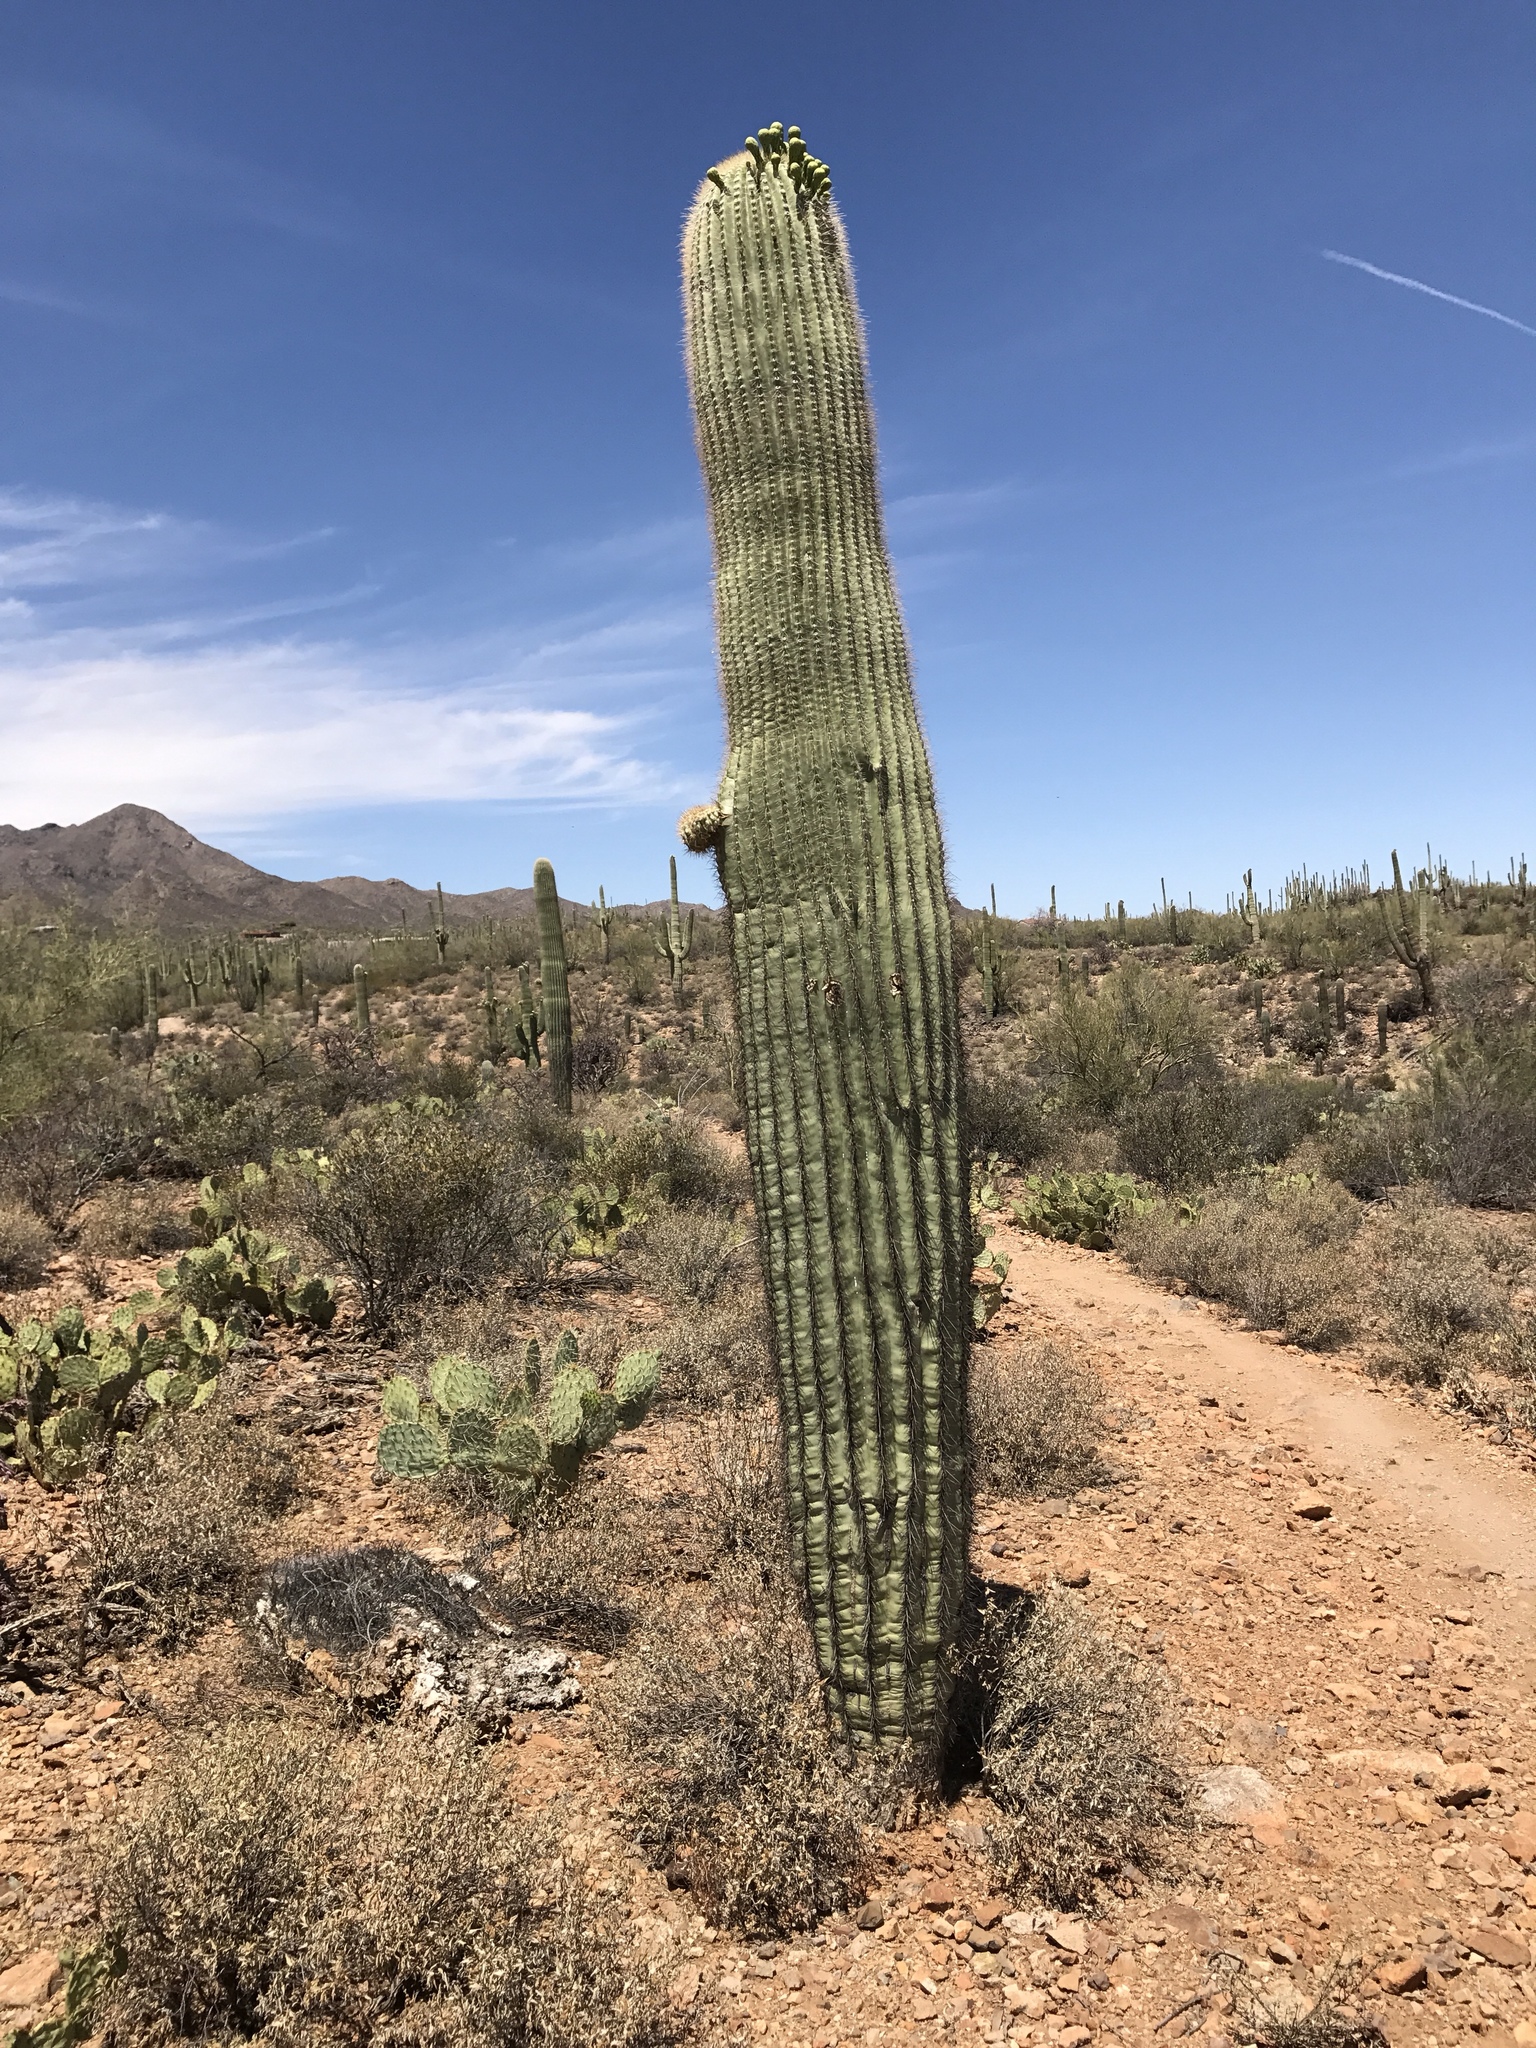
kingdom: Plantae
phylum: Tracheophyta
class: Magnoliopsida
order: Caryophyllales
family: Cactaceae
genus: Carnegiea
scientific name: Carnegiea gigantea
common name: Saguaro
